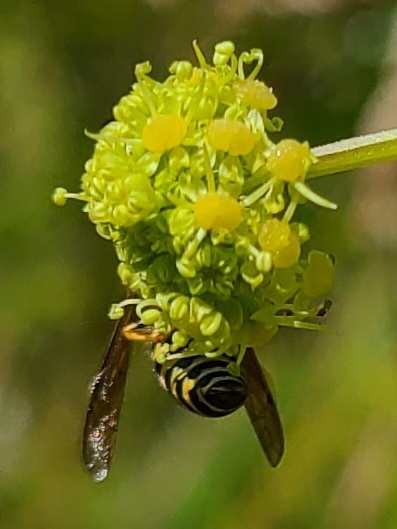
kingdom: Animalia
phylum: Arthropoda
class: Insecta
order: Hymenoptera
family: Vespidae
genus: Dolichovespula
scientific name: Dolichovespula norvegicoides
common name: Northern aerial yellowjacket
